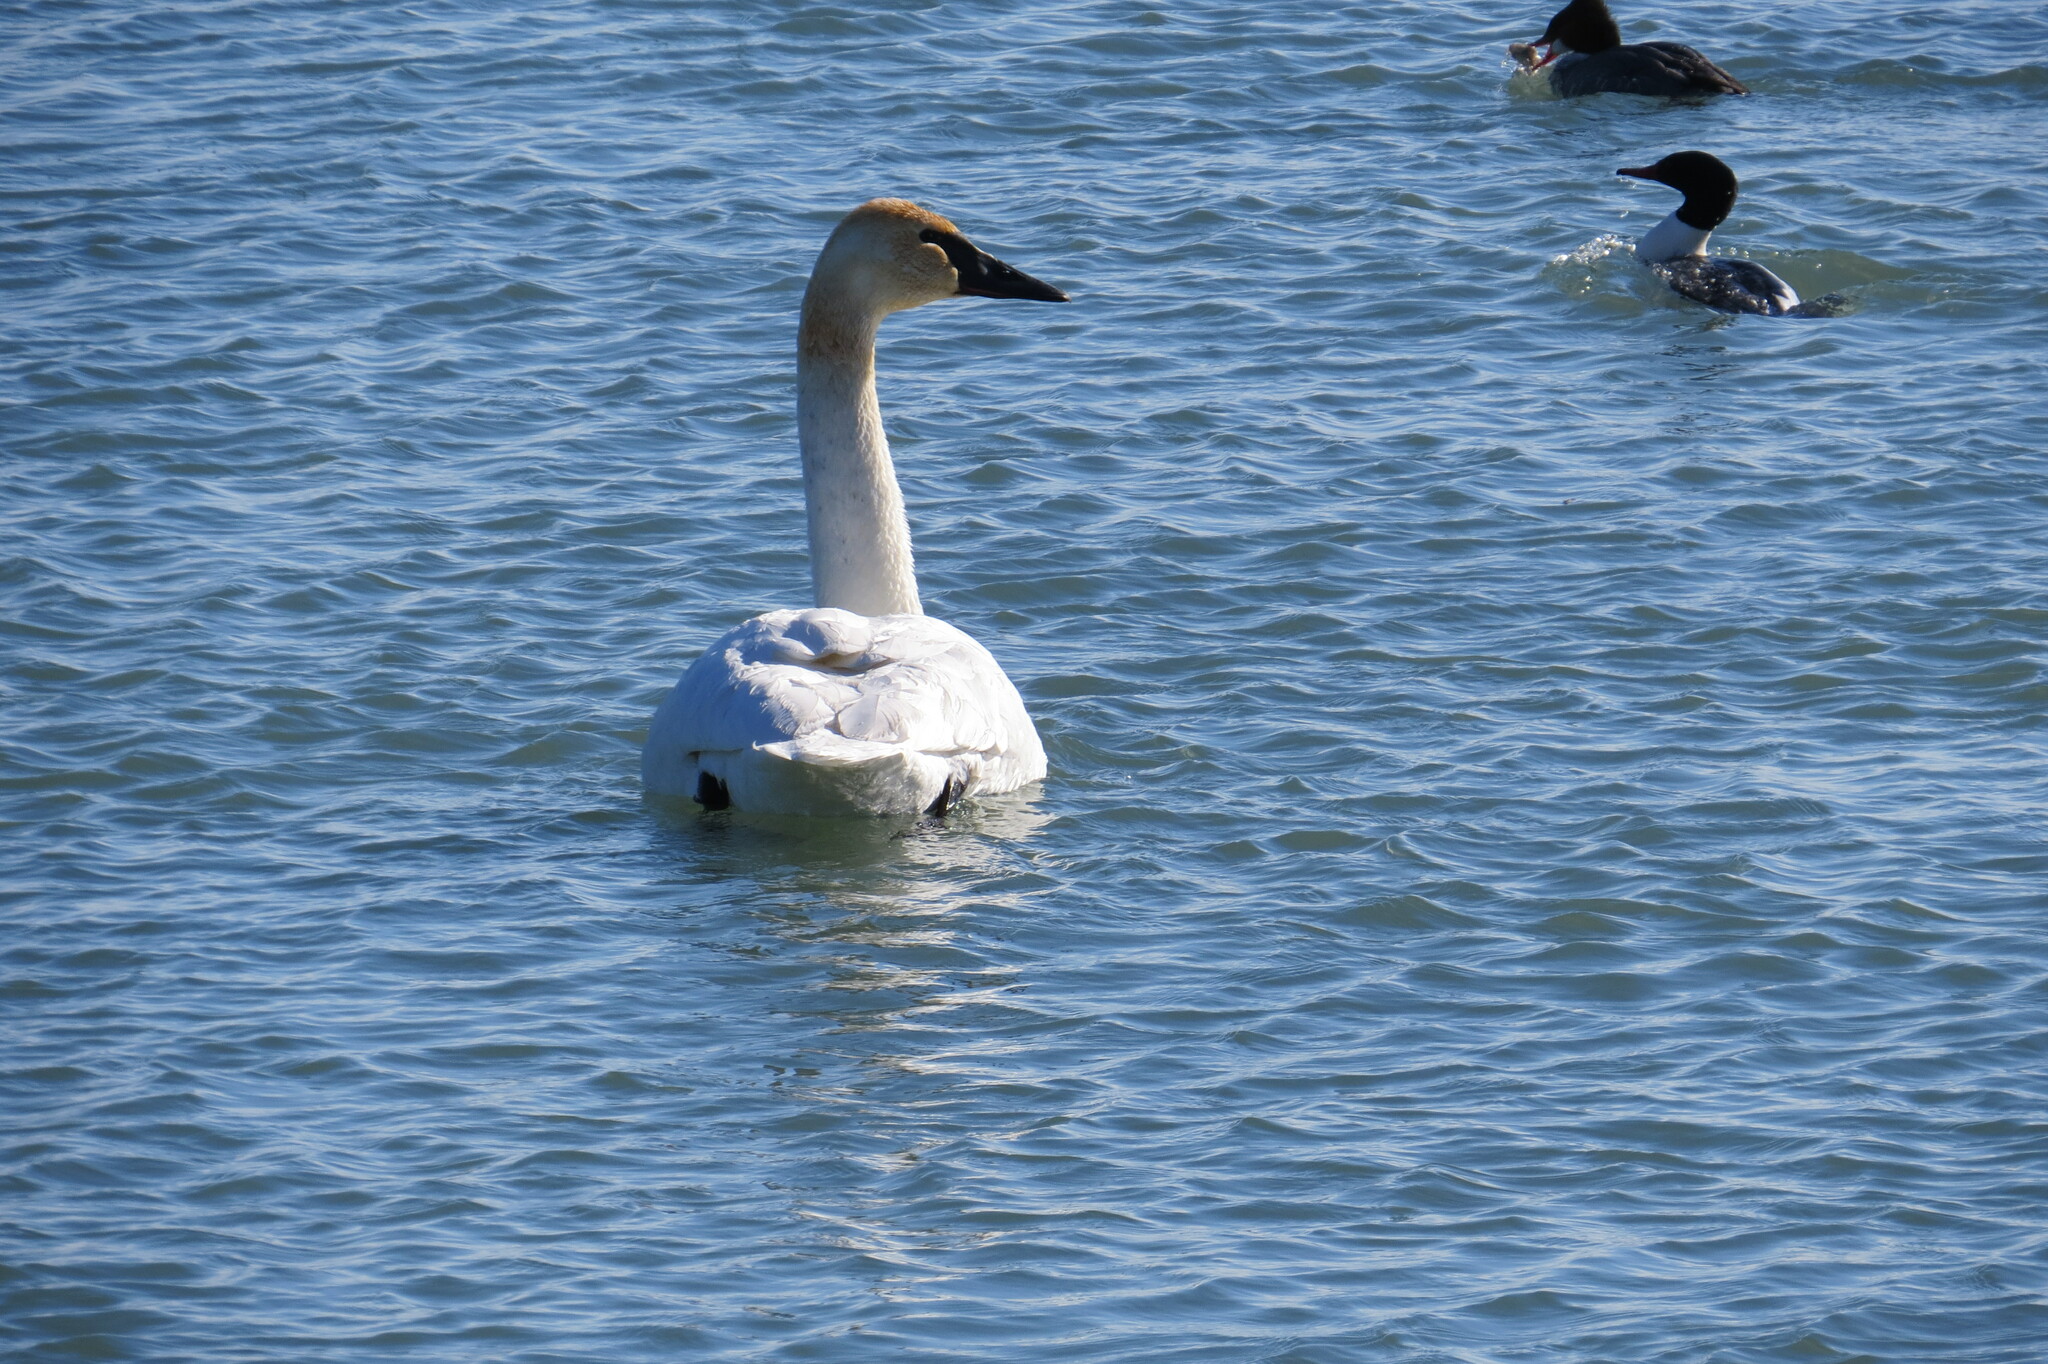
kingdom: Animalia
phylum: Chordata
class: Aves
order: Anseriformes
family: Anatidae
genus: Cygnus
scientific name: Cygnus buccinator
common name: Trumpeter swan
